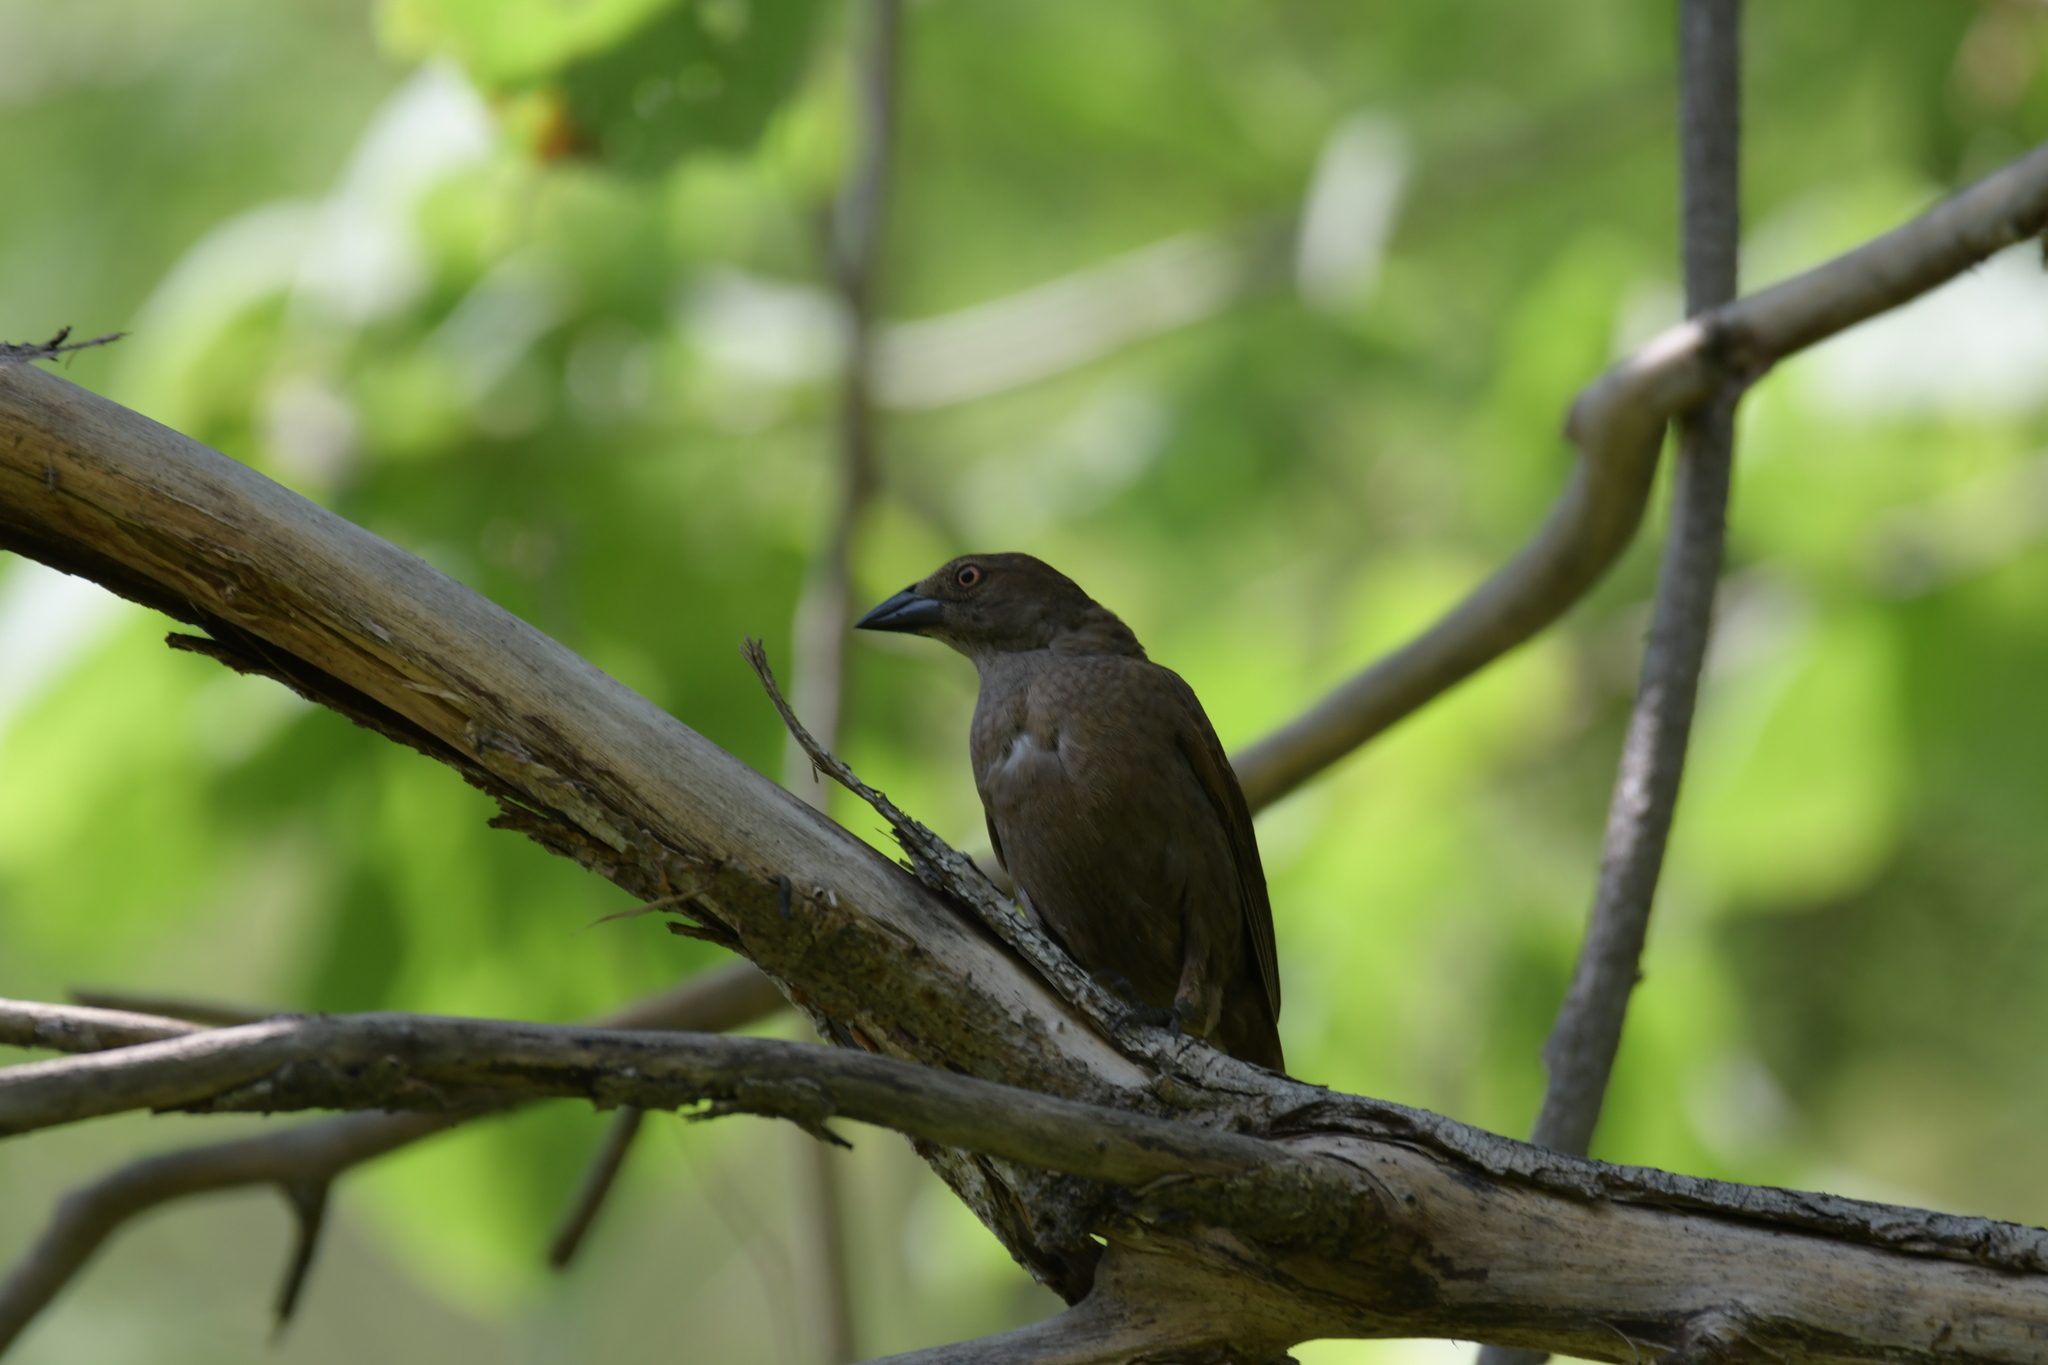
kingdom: Animalia
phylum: Chordata
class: Aves
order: Passeriformes
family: Icteridae
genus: Molothrus
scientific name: Molothrus aeneus
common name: Bronzed cowbird
